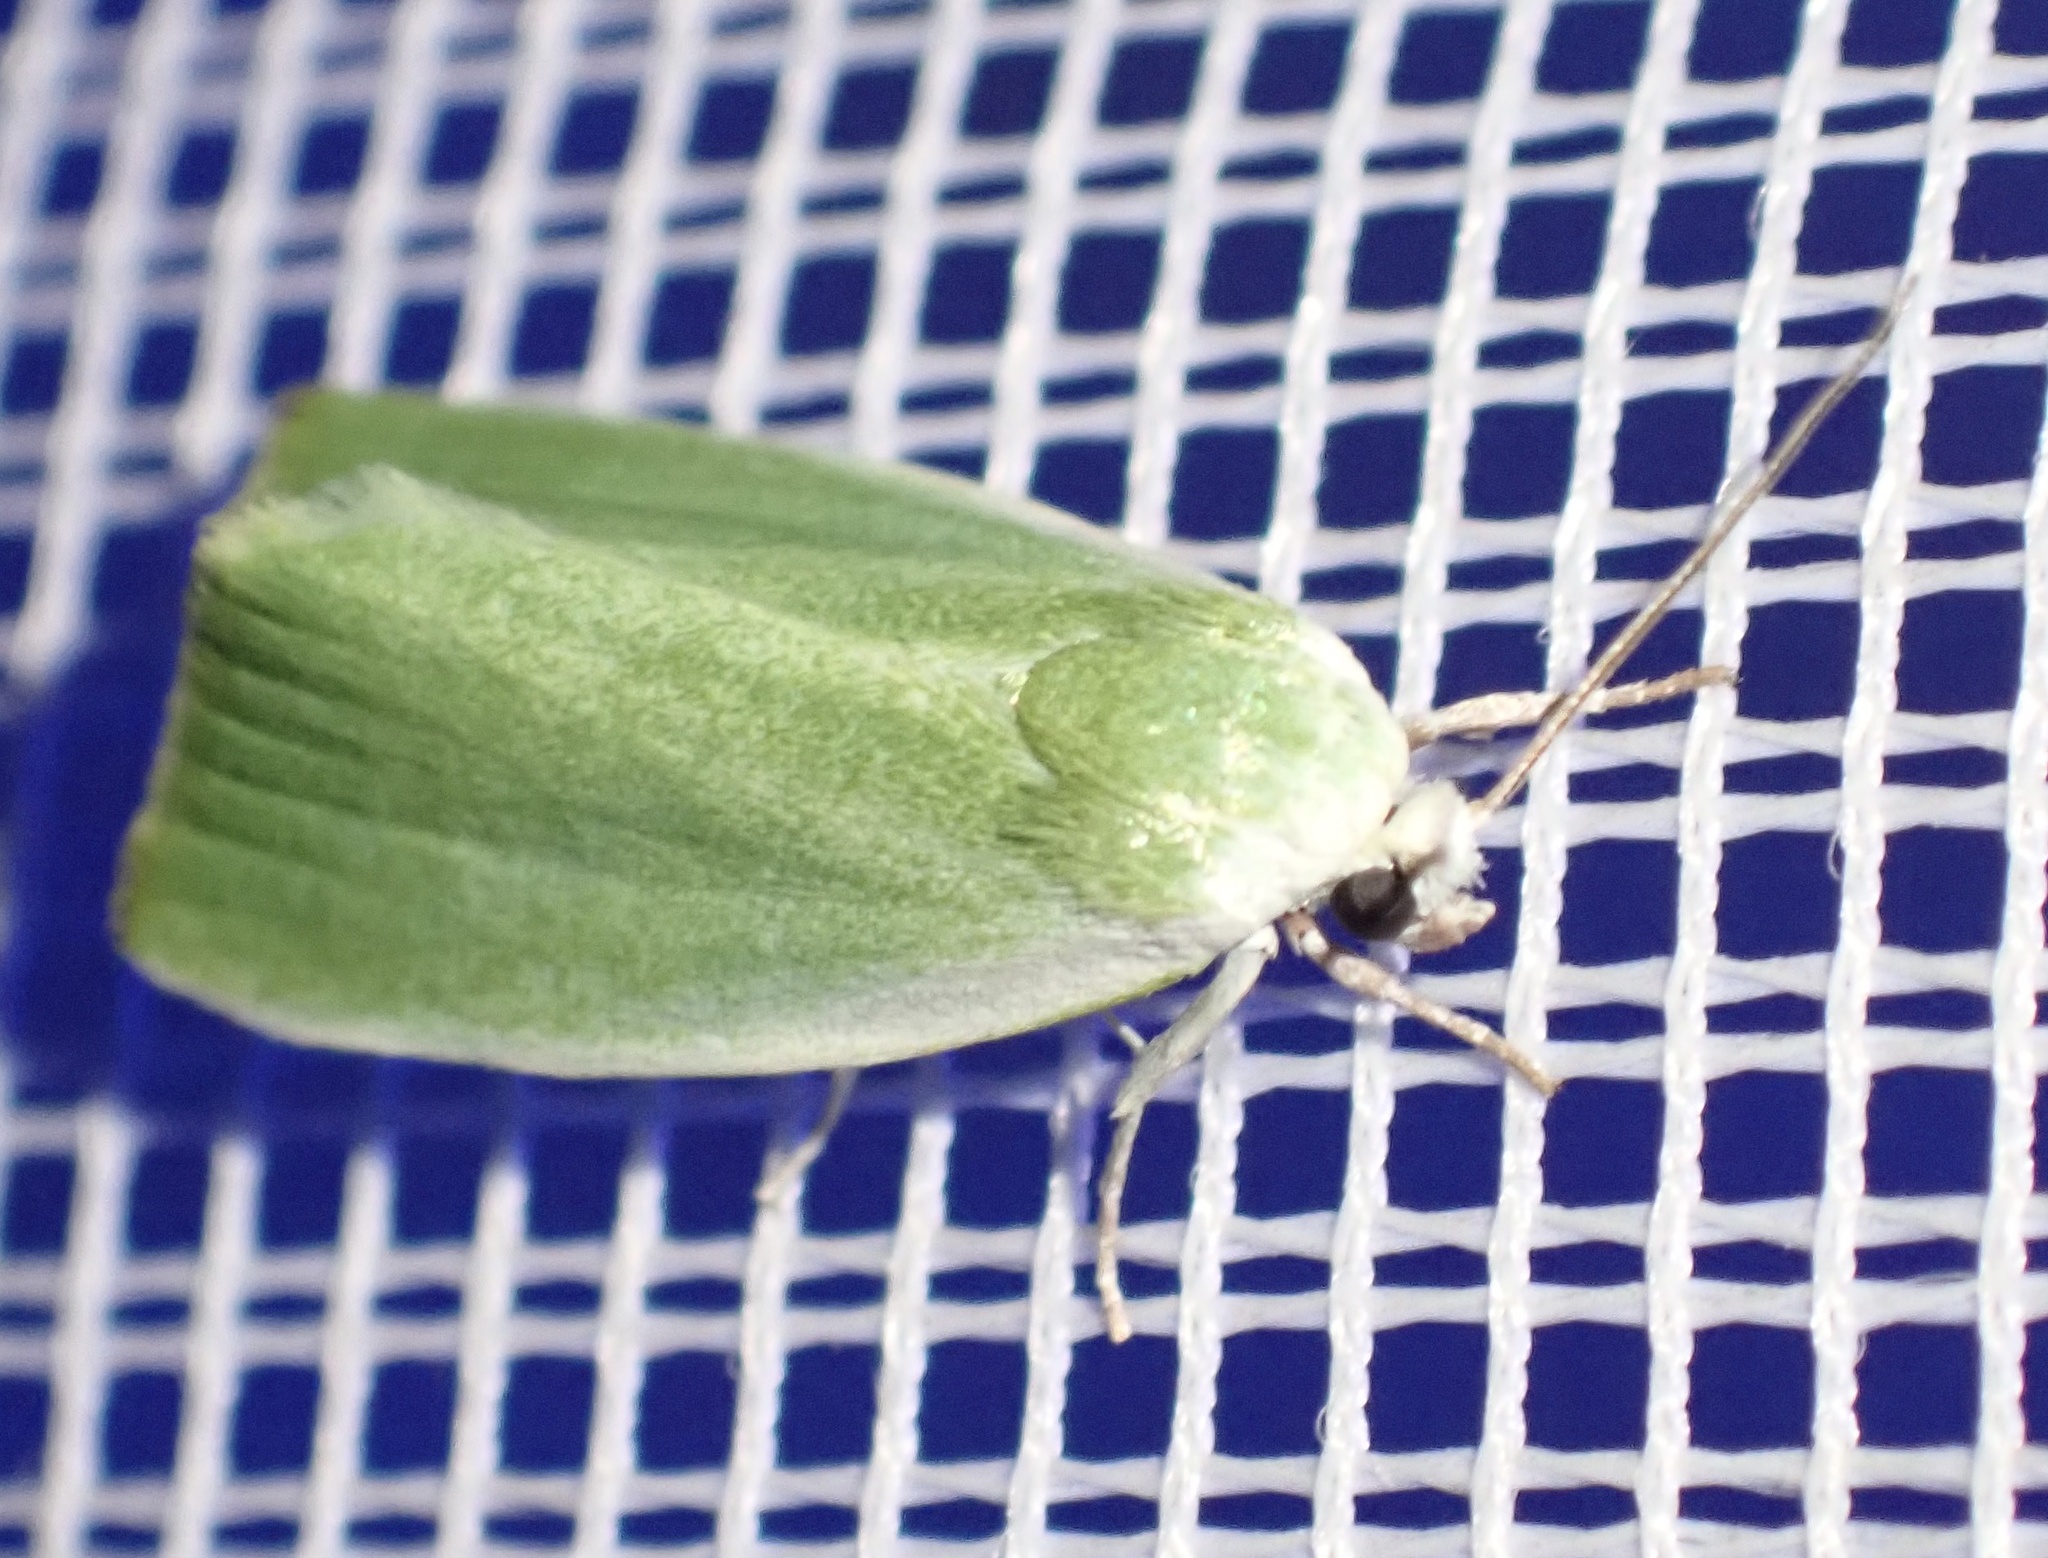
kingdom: Animalia
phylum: Arthropoda
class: Insecta
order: Lepidoptera
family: Nolidae
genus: Earias
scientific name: Earias clorana
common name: Cream-bordered green pea
